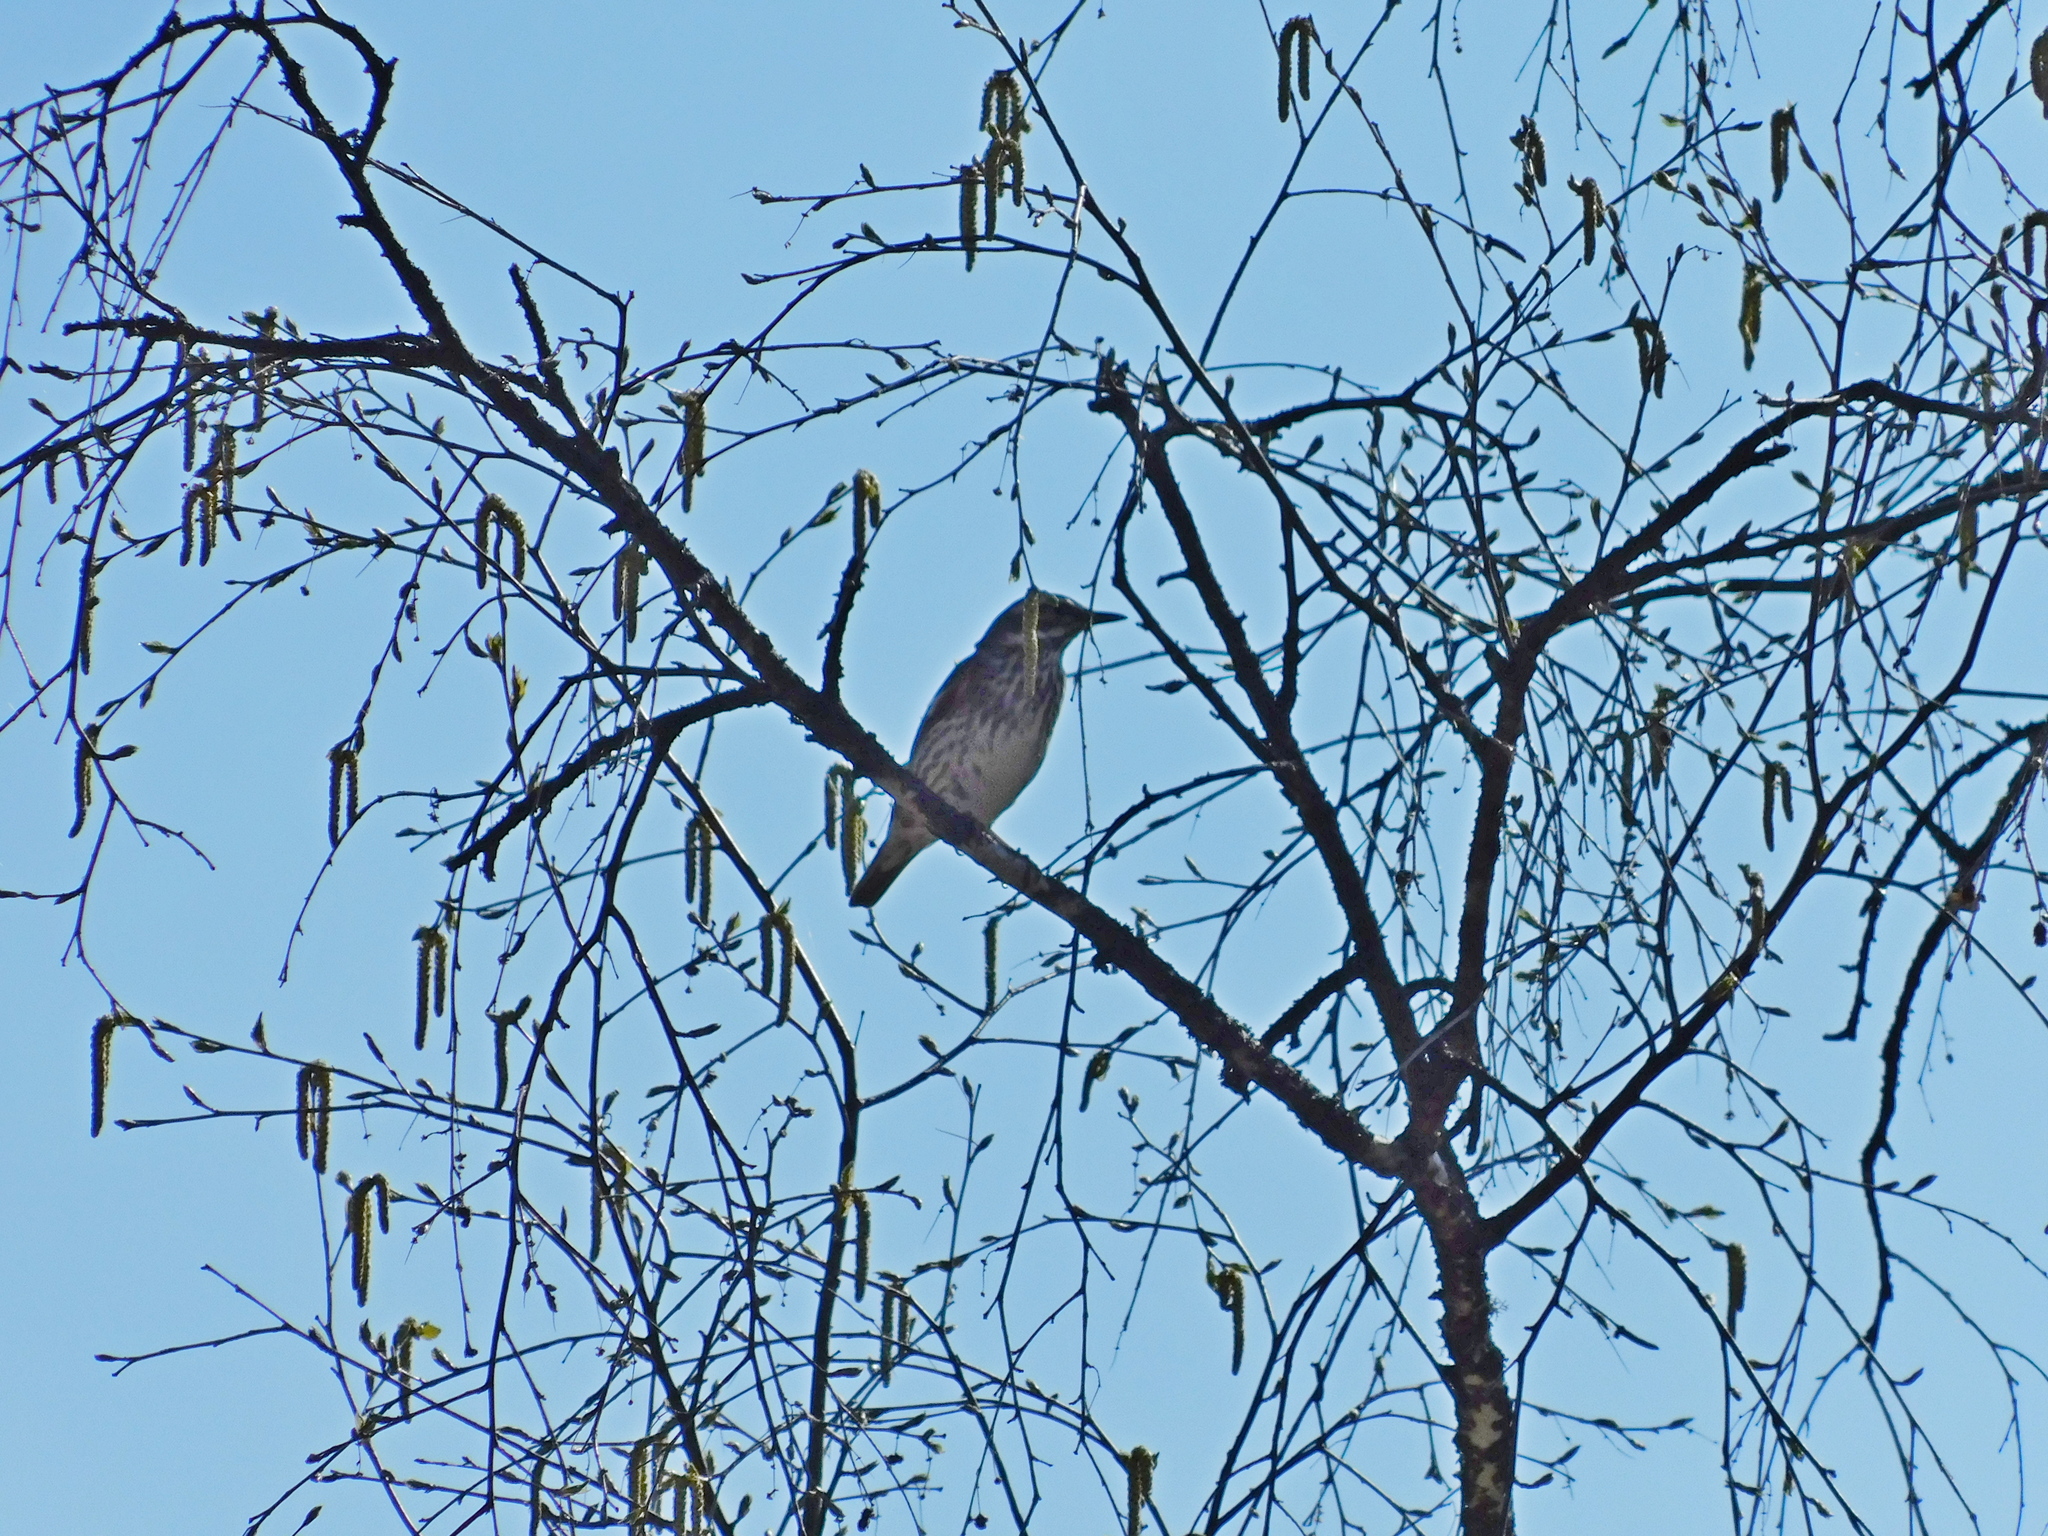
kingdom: Animalia
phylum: Chordata
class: Aves
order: Passeriformes
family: Turdidae
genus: Turdus
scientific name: Turdus iliacus
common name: Redwing
